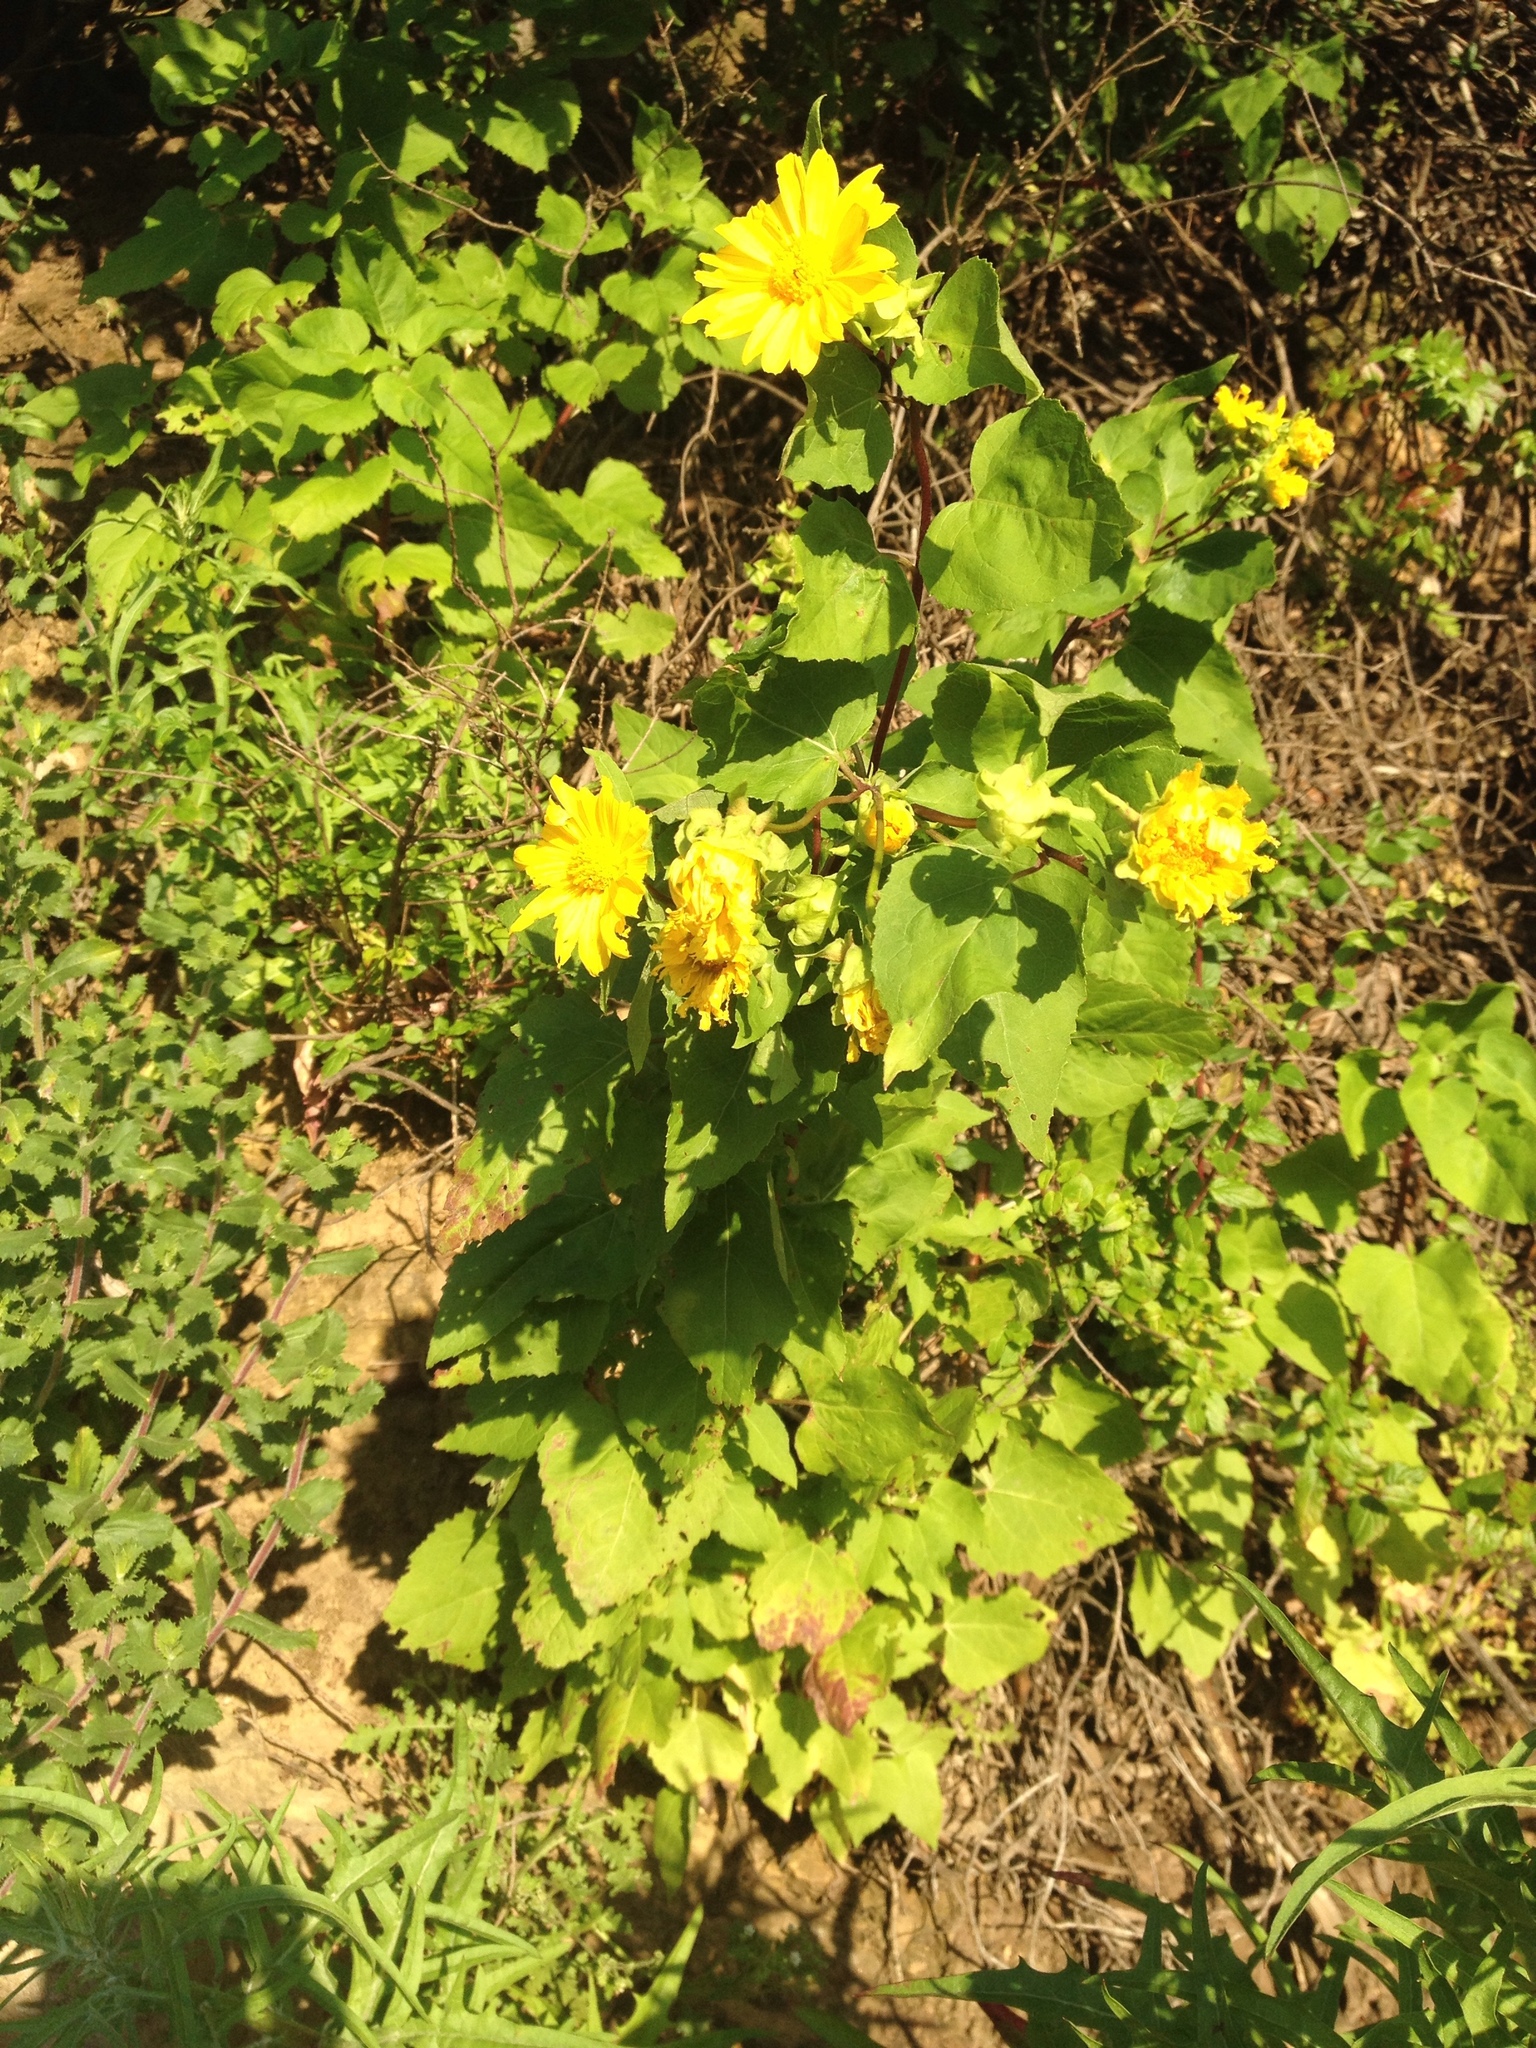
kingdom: Plantae
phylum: Tracheophyta
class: Magnoliopsida
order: Asterales
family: Asteraceae
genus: Venegasia
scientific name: Venegasia carpesioides
